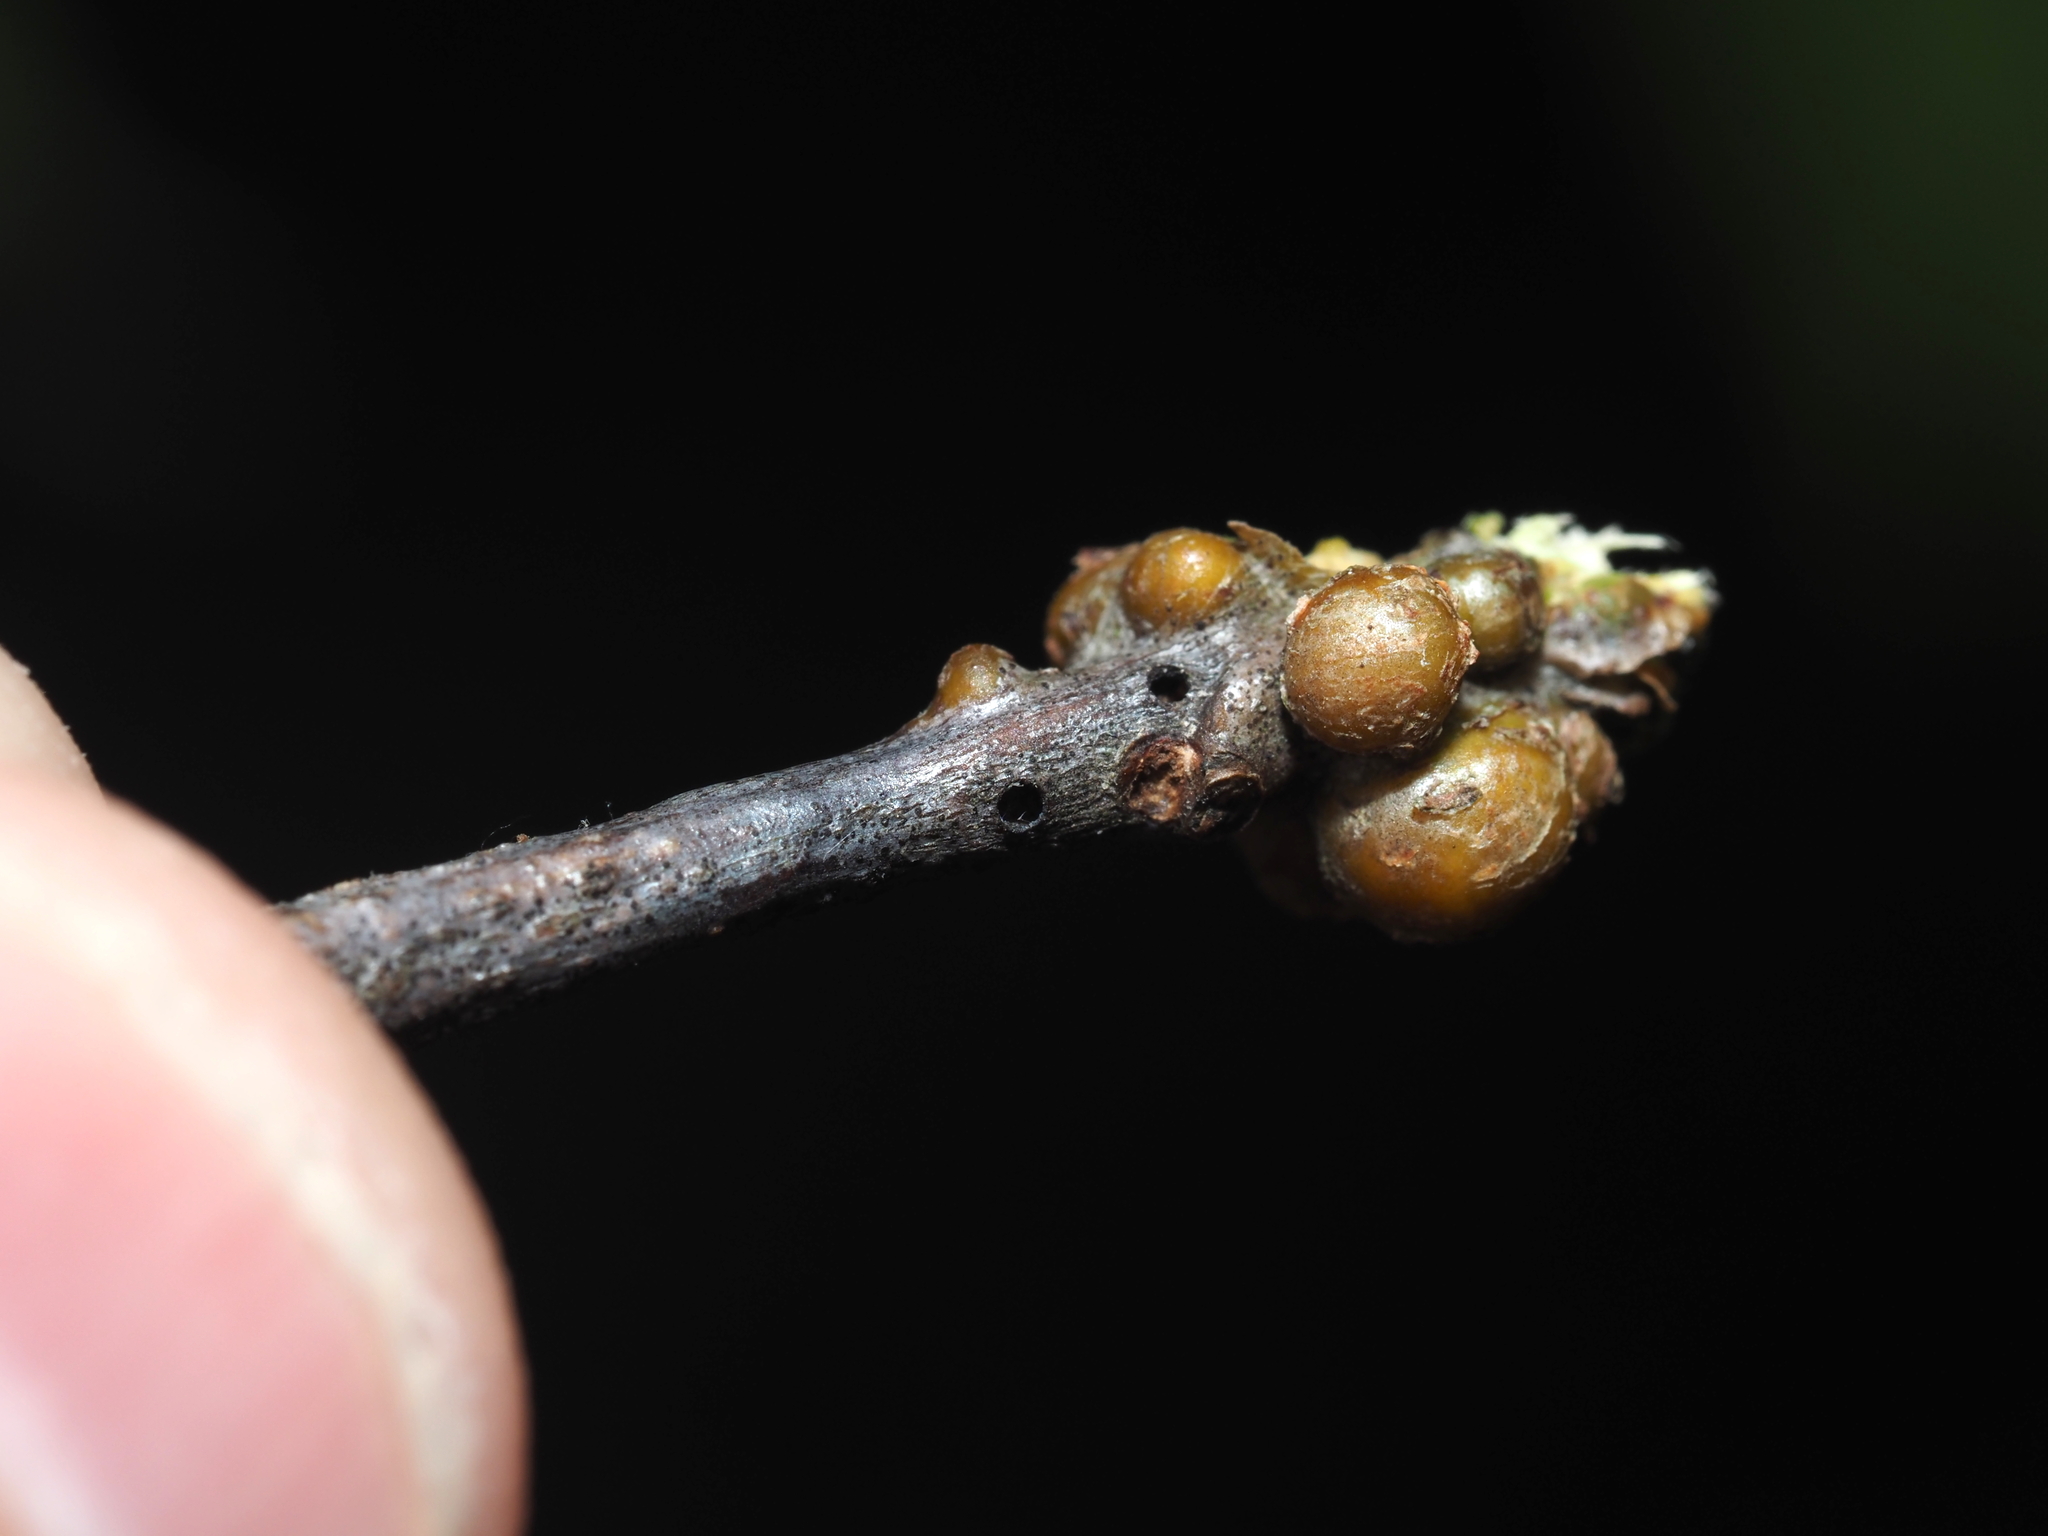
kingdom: Animalia
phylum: Arthropoda
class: Insecta
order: Hymenoptera
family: Cynipidae
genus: Callirhytis
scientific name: Callirhytis
